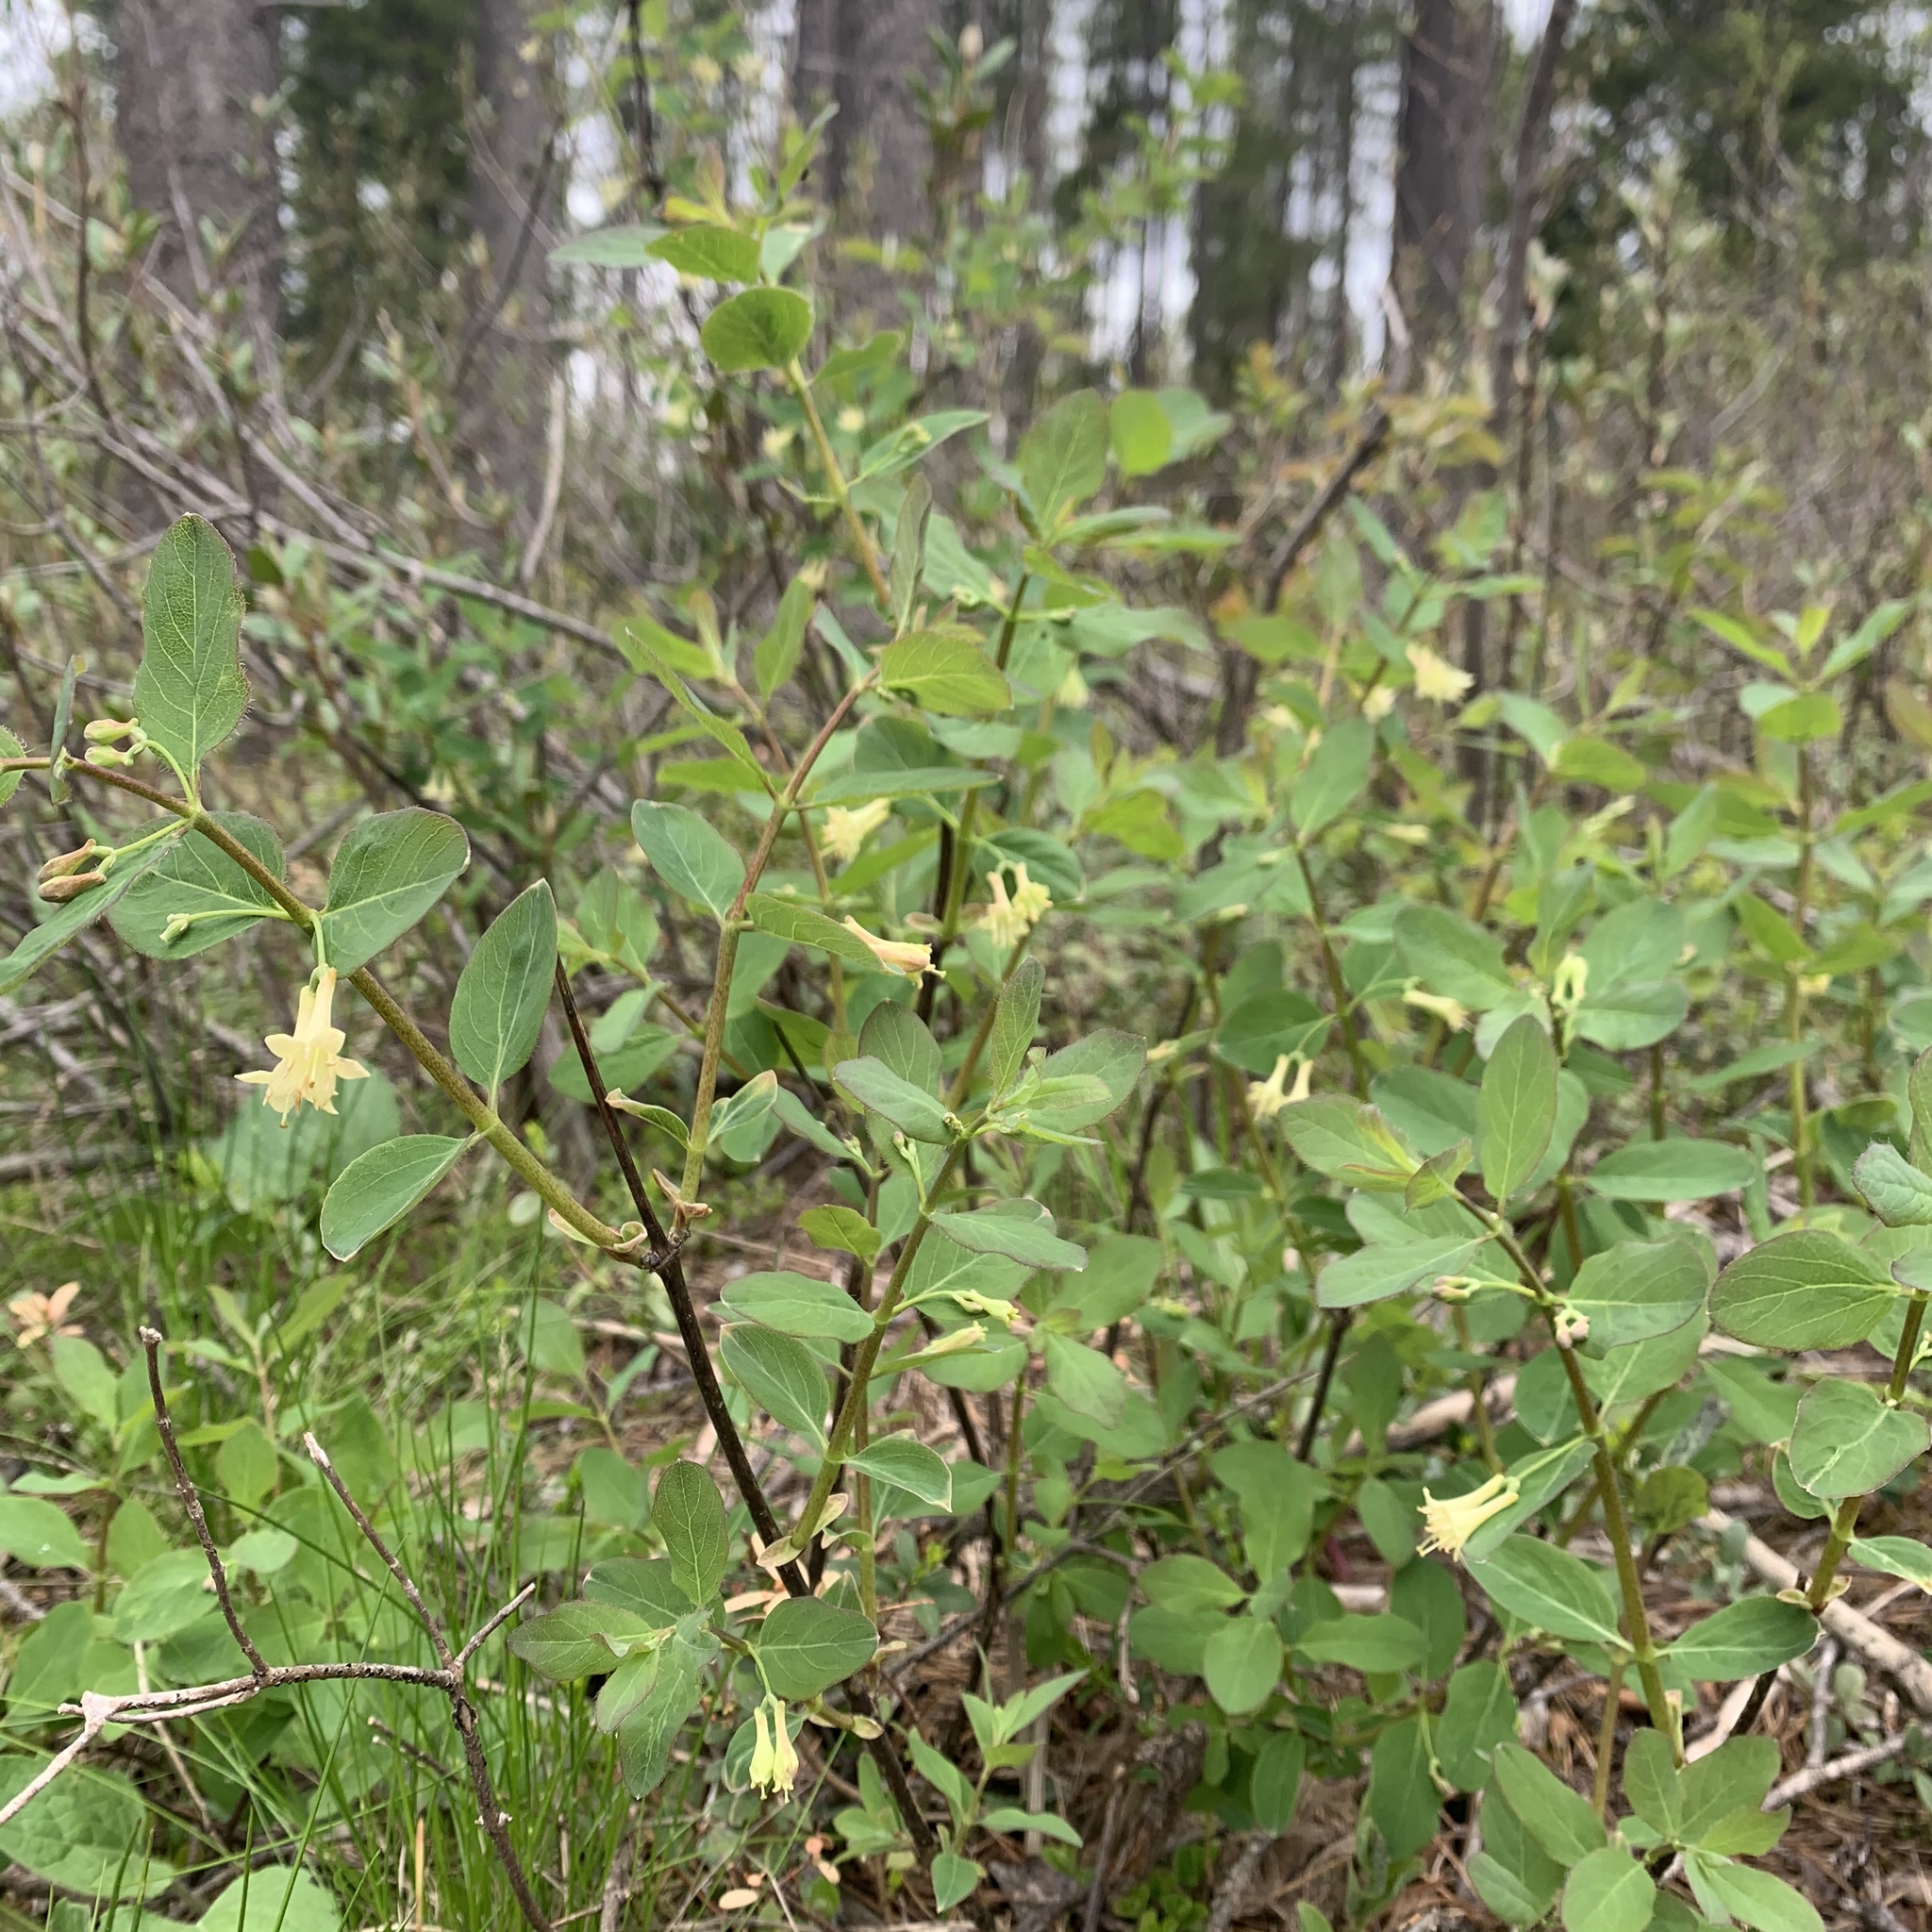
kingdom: Plantae
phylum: Tracheophyta
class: Magnoliopsida
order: Dipsacales
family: Caprifoliaceae
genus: Lonicera
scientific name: Lonicera utahensis
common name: Utah honeysuckle
